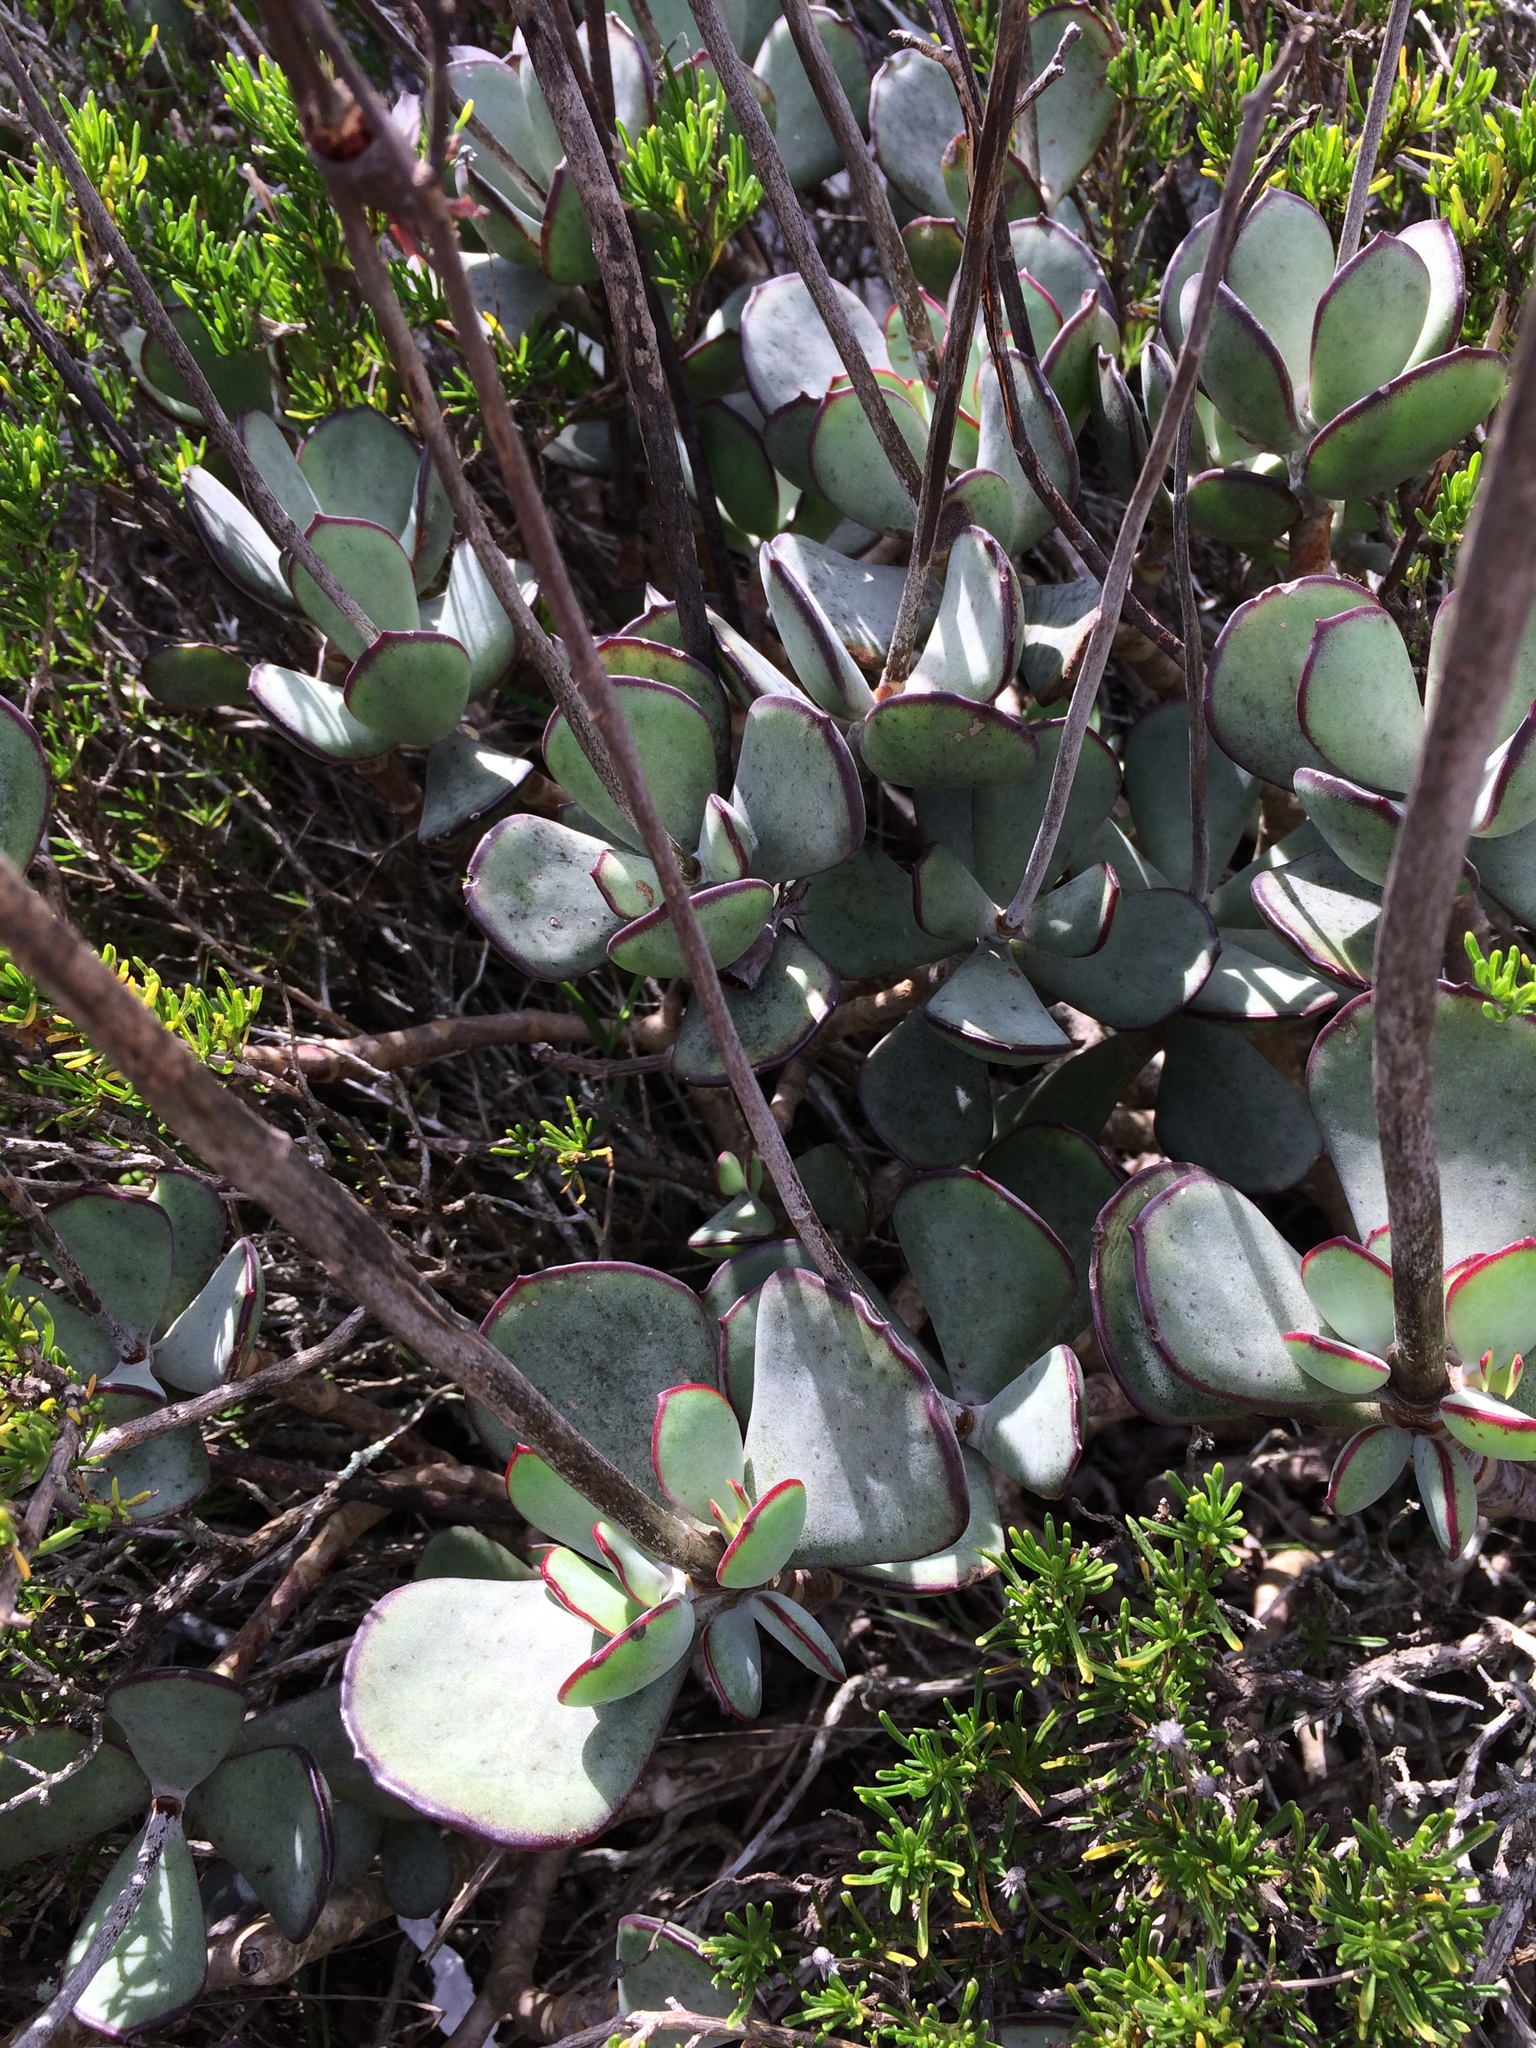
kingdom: Plantae
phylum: Tracheophyta
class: Magnoliopsida
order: Saxifragales
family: Crassulaceae
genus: Cotyledon
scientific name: Cotyledon orbiculata
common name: Pig's ear
